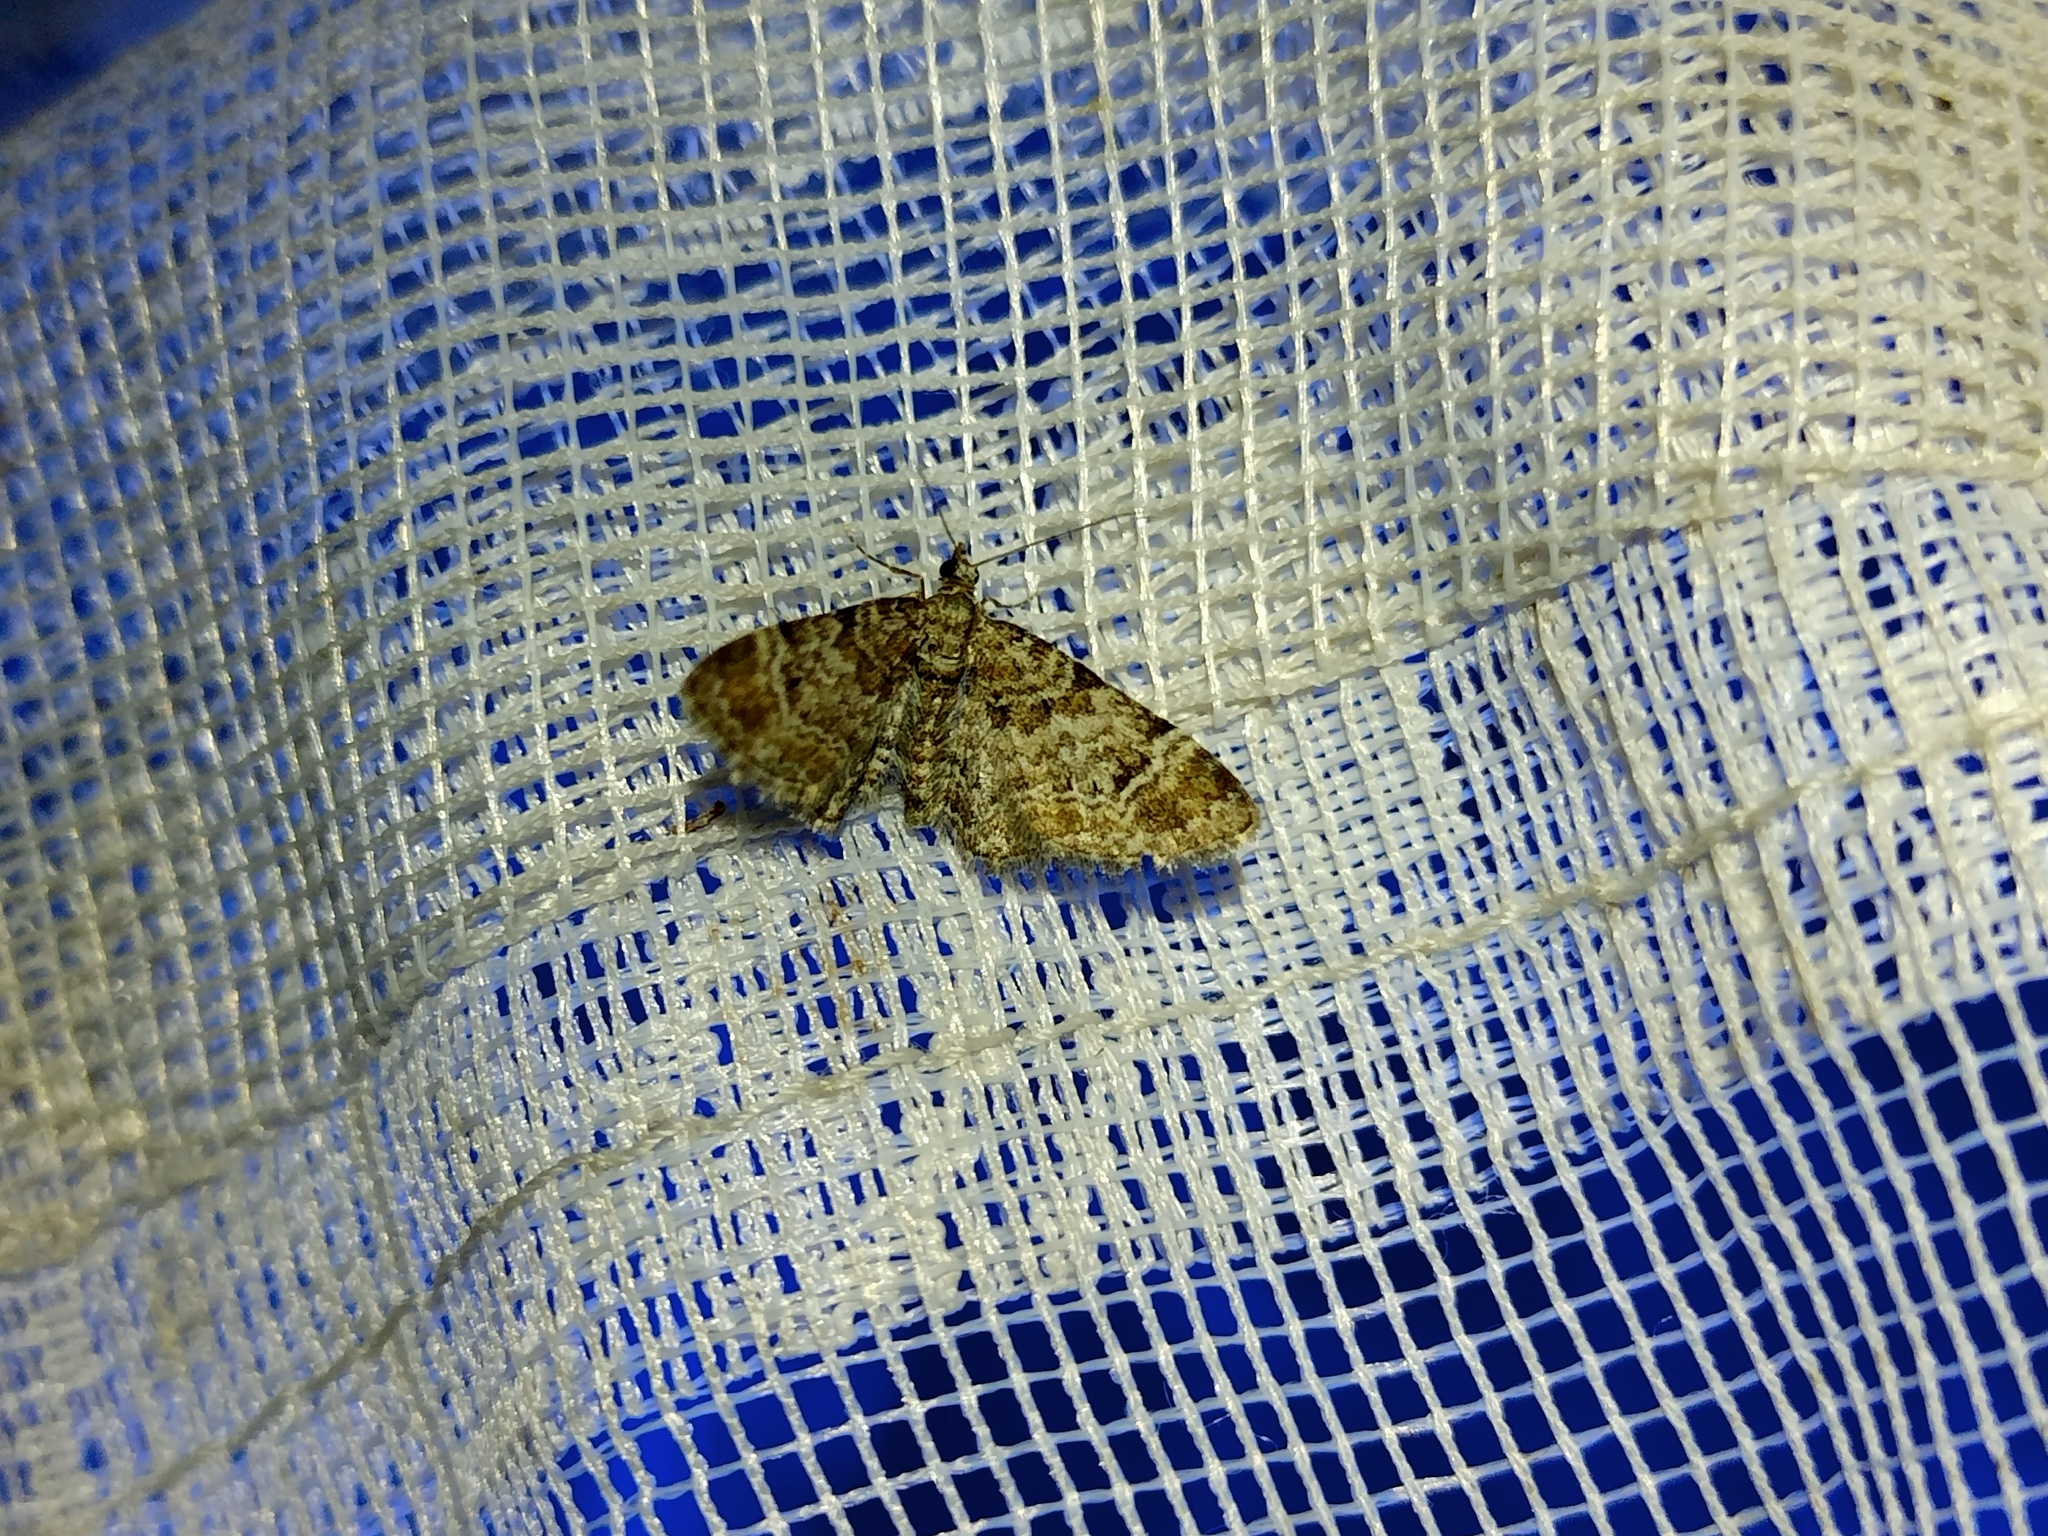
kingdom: Animalia
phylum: Arthropoda
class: Insecta
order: Lepidoptera
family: Geometridae
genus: Gymnoscelis
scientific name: Gymnoscelis rufifasciata
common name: Double-striped pug
